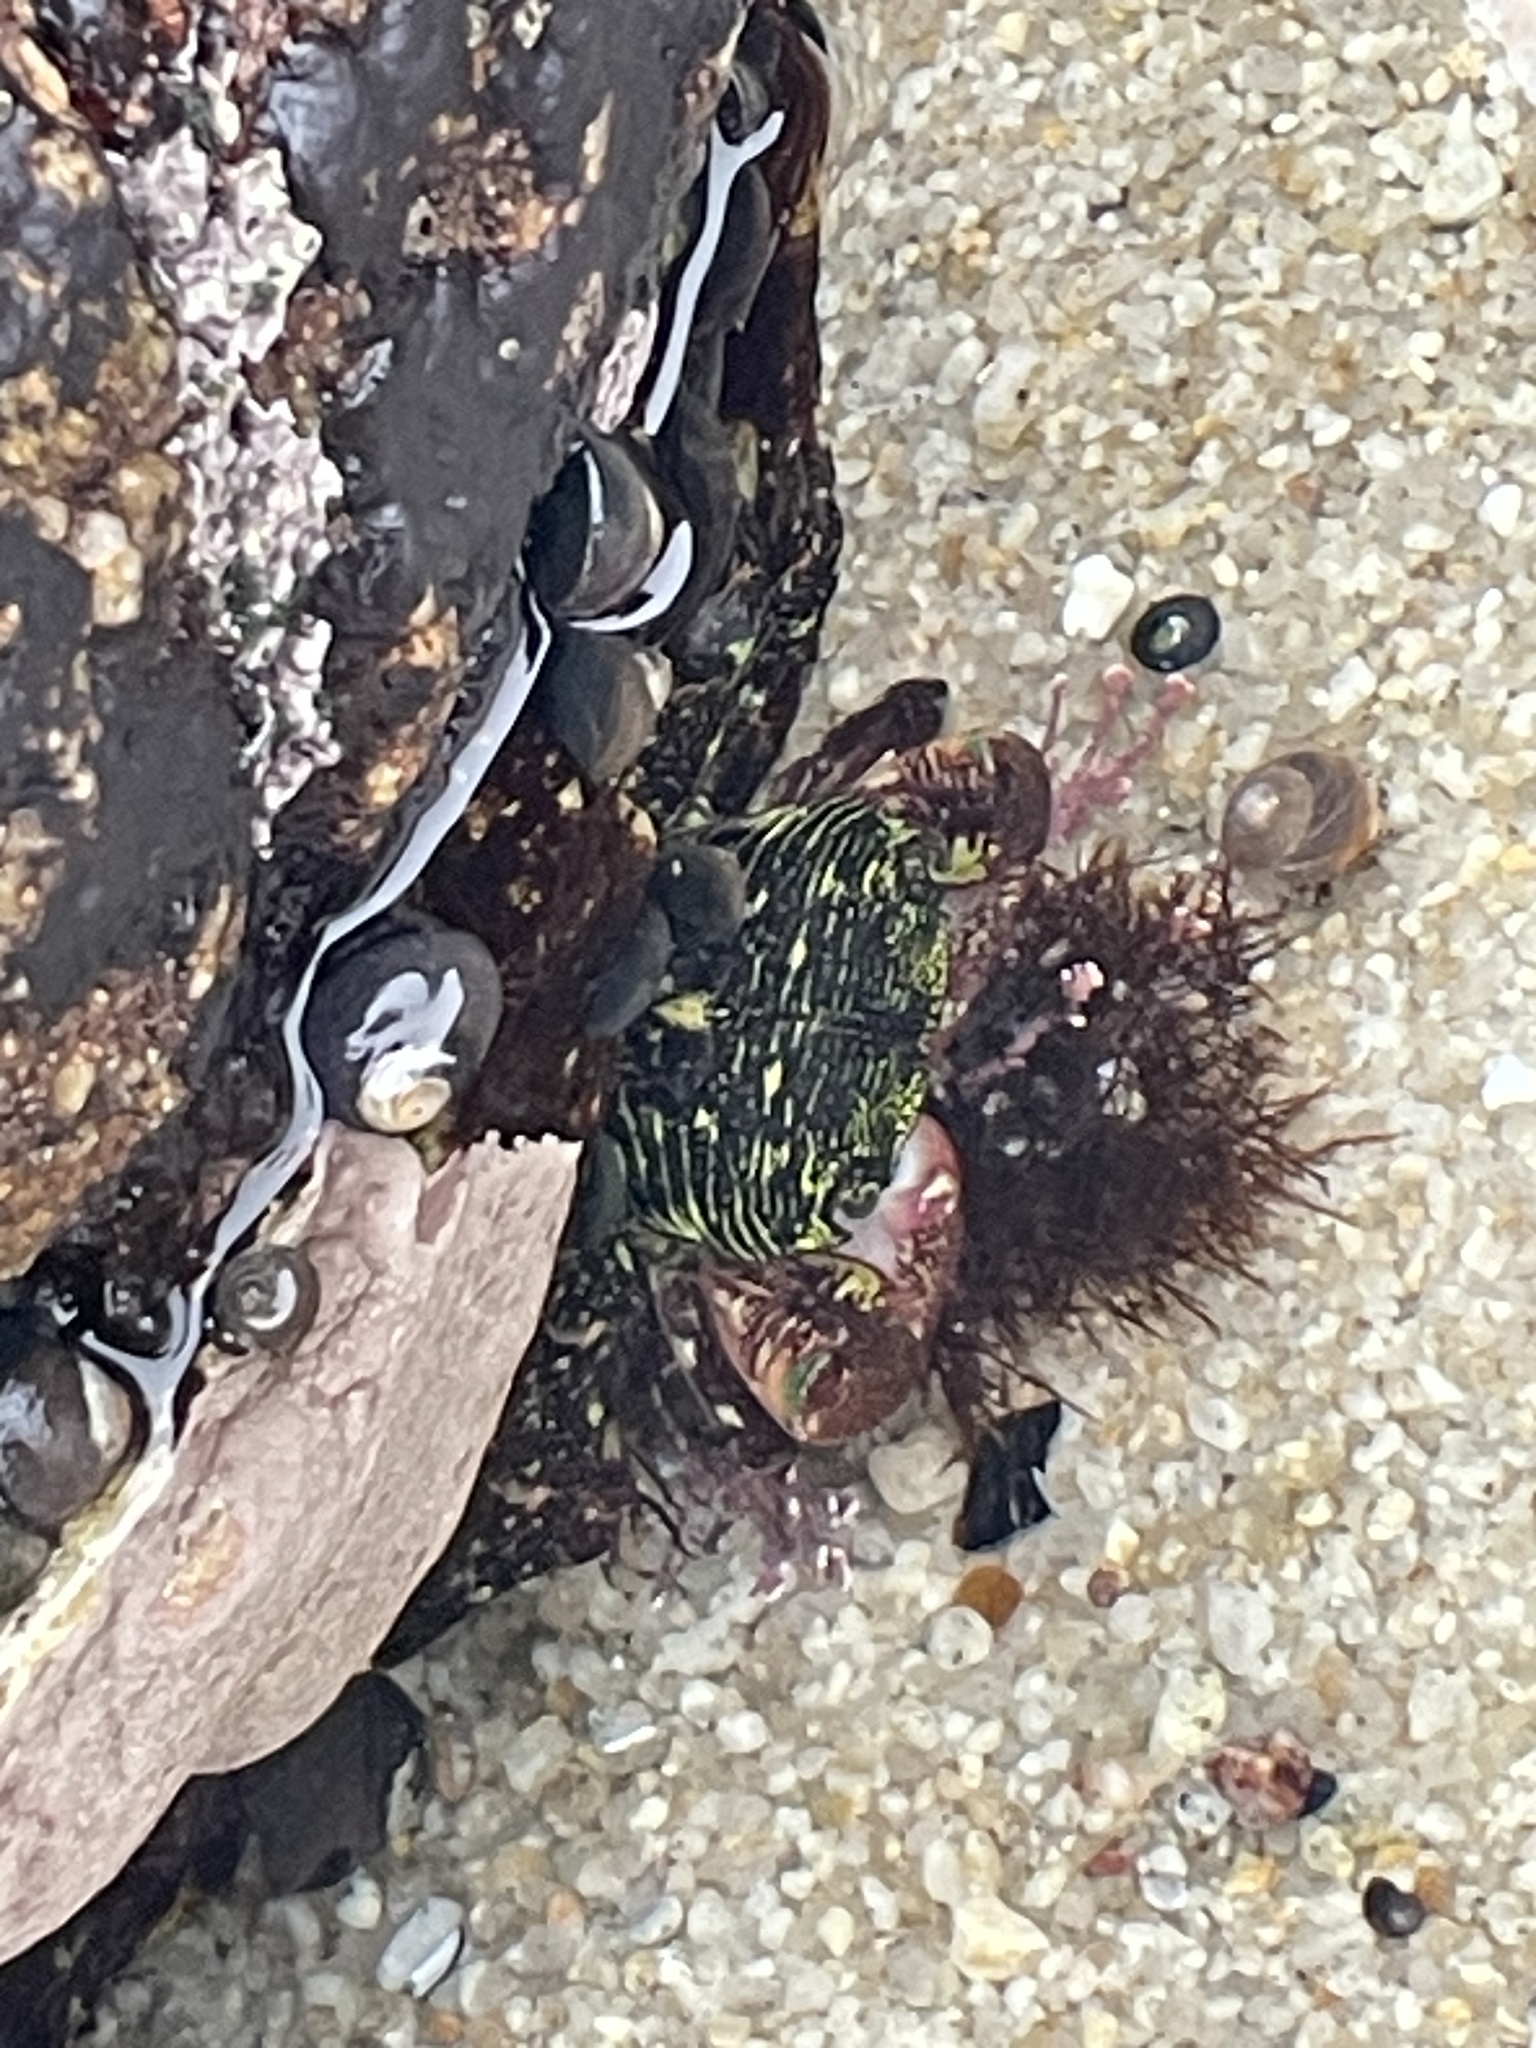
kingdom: Animalia
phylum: Arthropoda
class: Malacostraca
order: Decapoda
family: Grapsidae
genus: Pachygrapsus
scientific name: Pachygrapsus crassipes
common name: Striped shore crab
